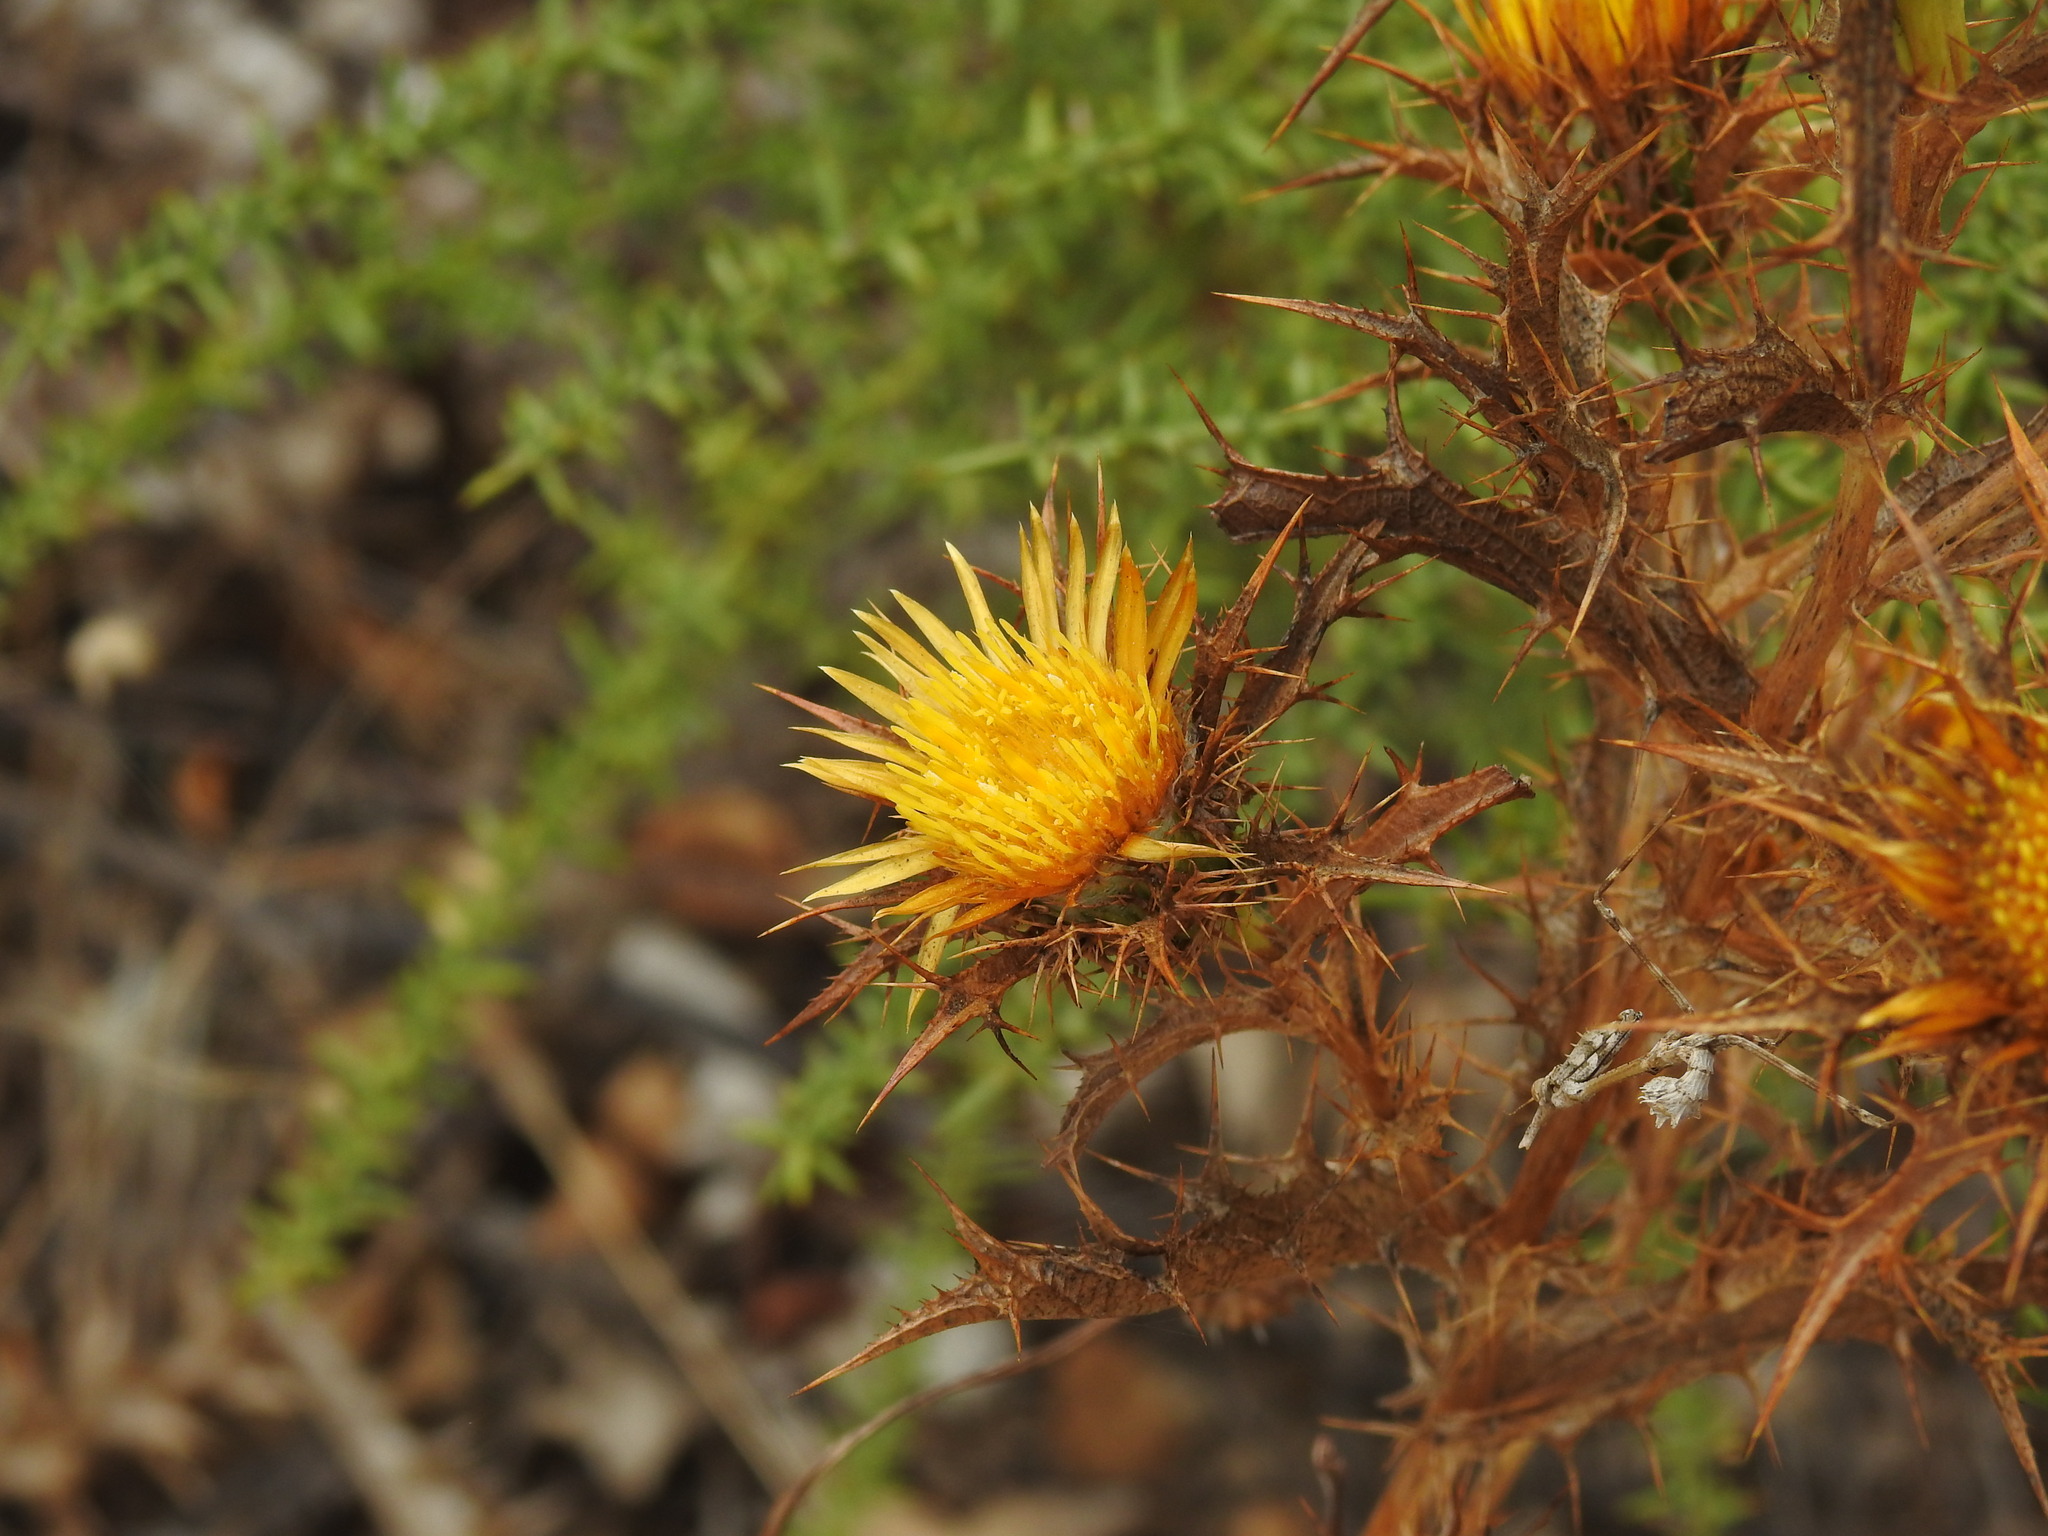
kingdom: Plantae
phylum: Tracheophyta
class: Magnoliopsida
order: Asterales
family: Asteraceae
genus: Carlina
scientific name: Carlina hispanica
